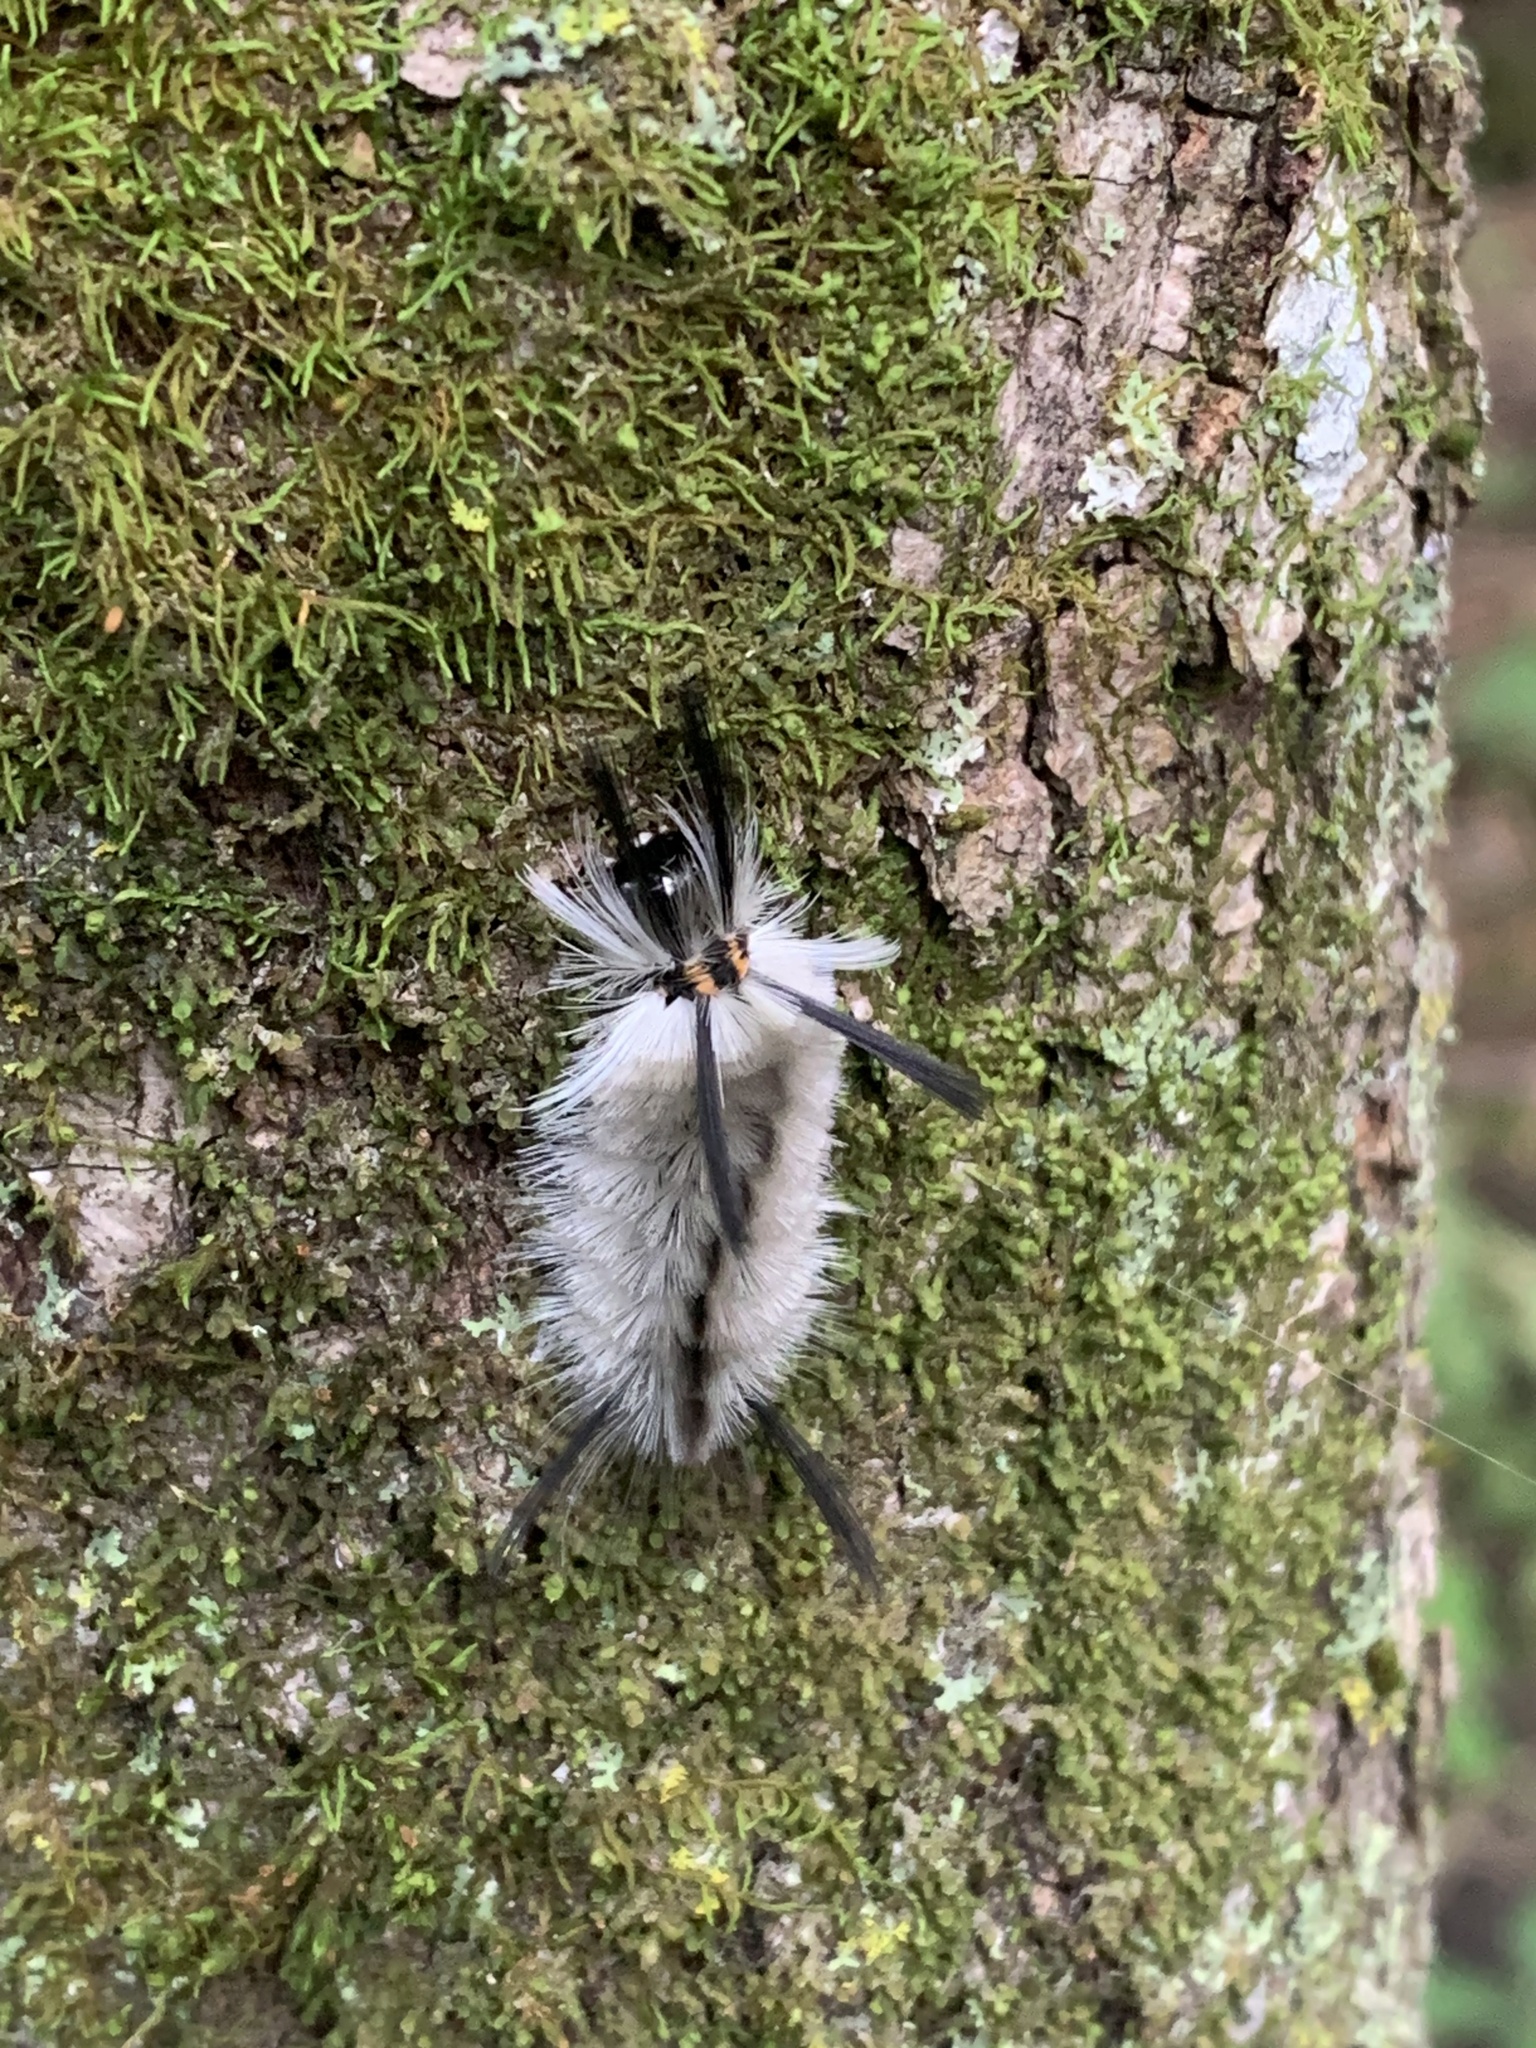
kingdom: Animalia
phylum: Arthropoda
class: Insecta
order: Lepidoptera
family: Erebidae
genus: Halysidota
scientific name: Halysidota tessellaris
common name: Banded tussock moth
